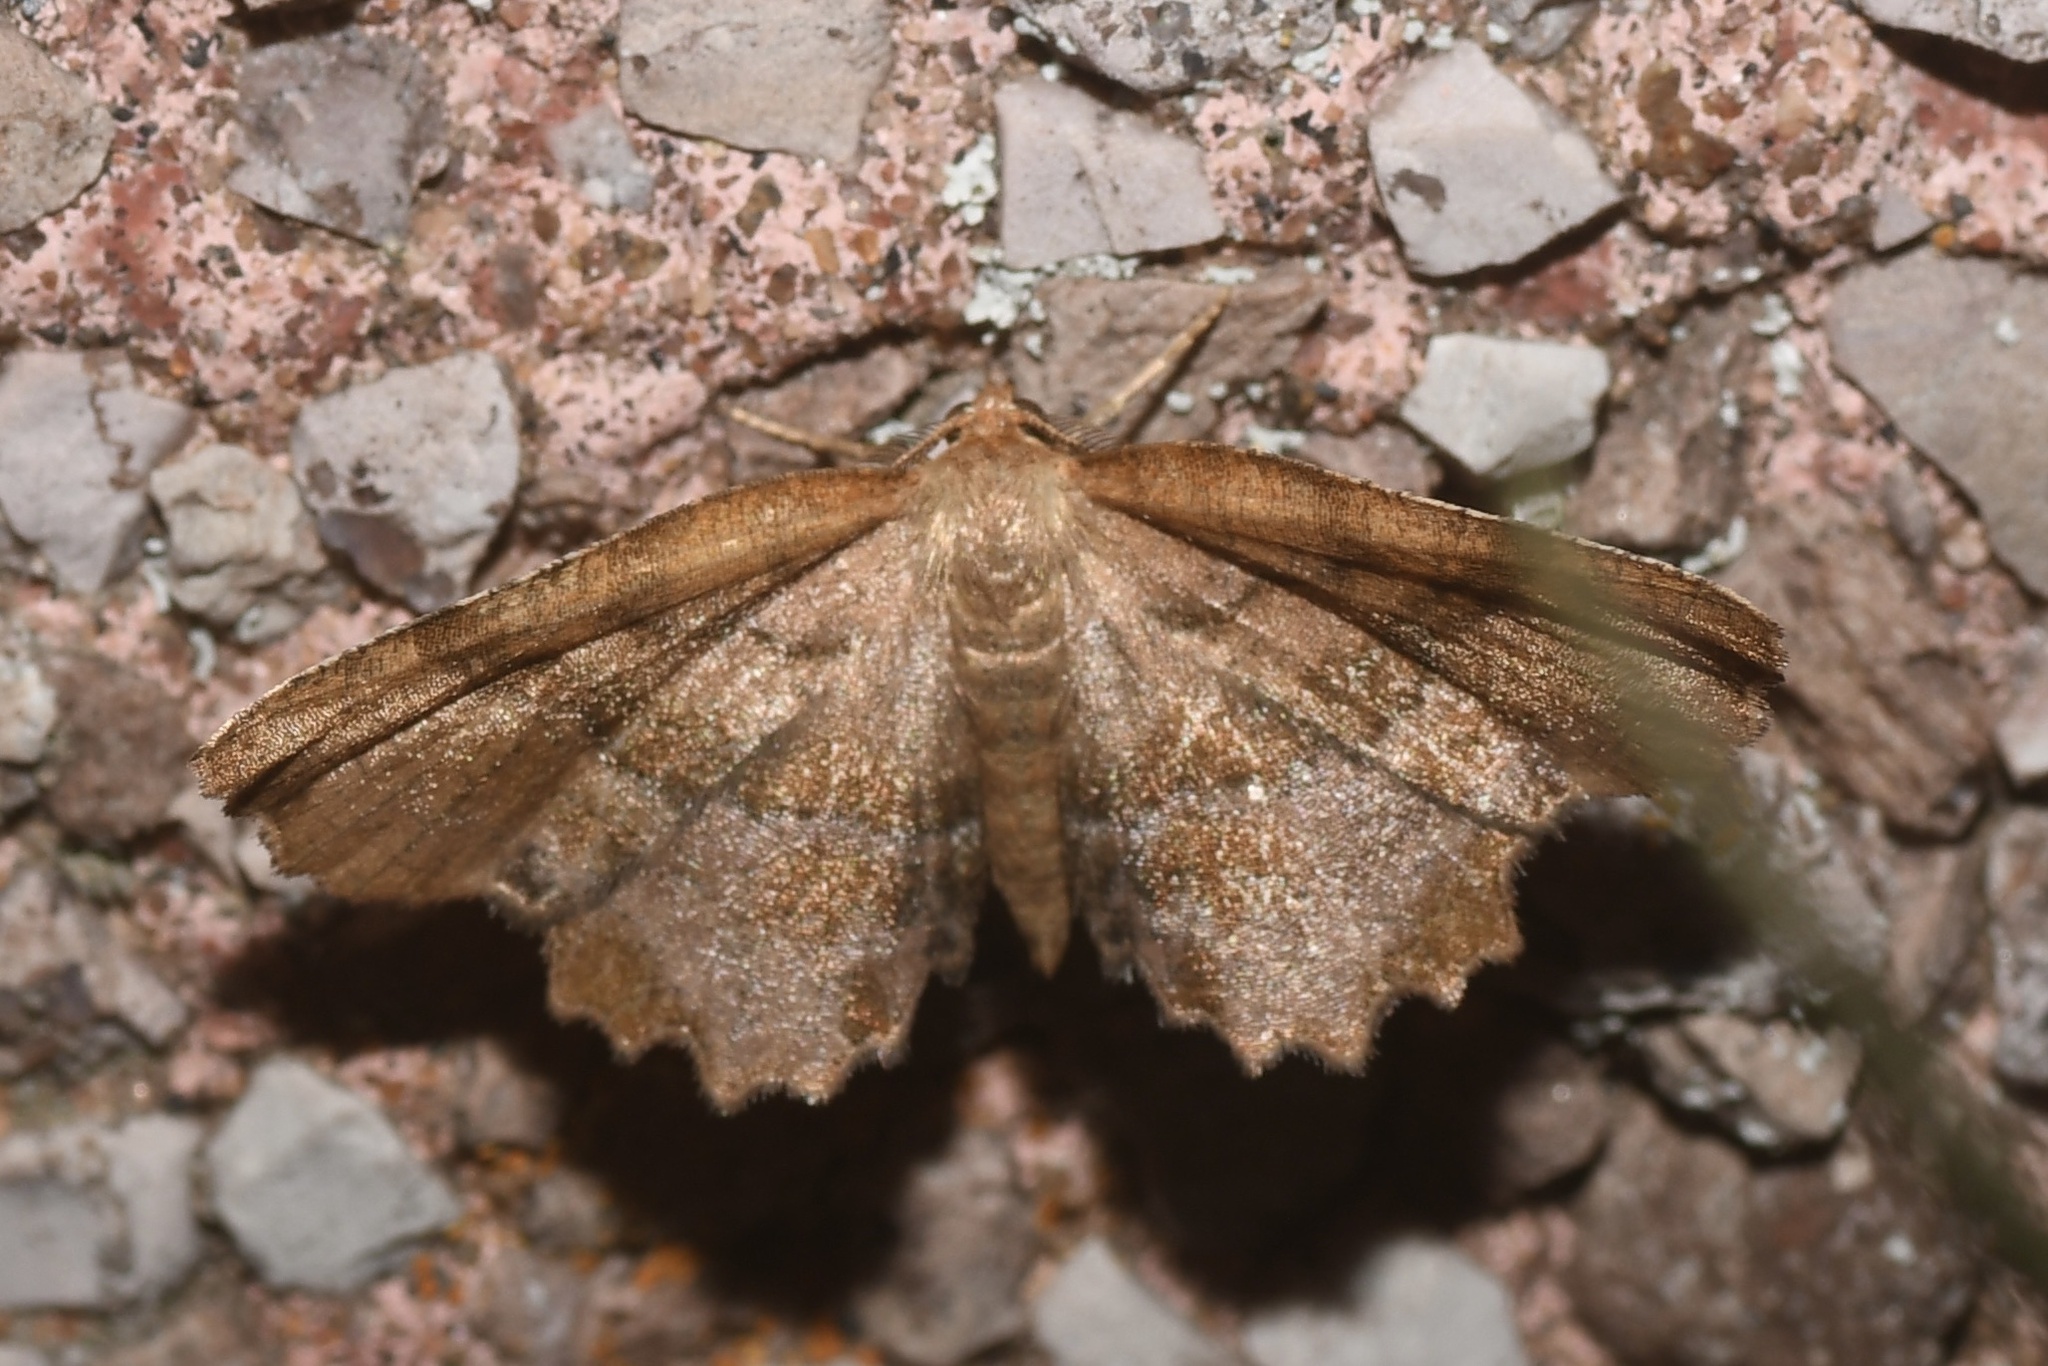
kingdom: Animalia
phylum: Arthropoda
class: Insecta
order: Lepidoptera
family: Geometridae
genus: Cepphis
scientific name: Cepphis armataria
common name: Scallop moth
